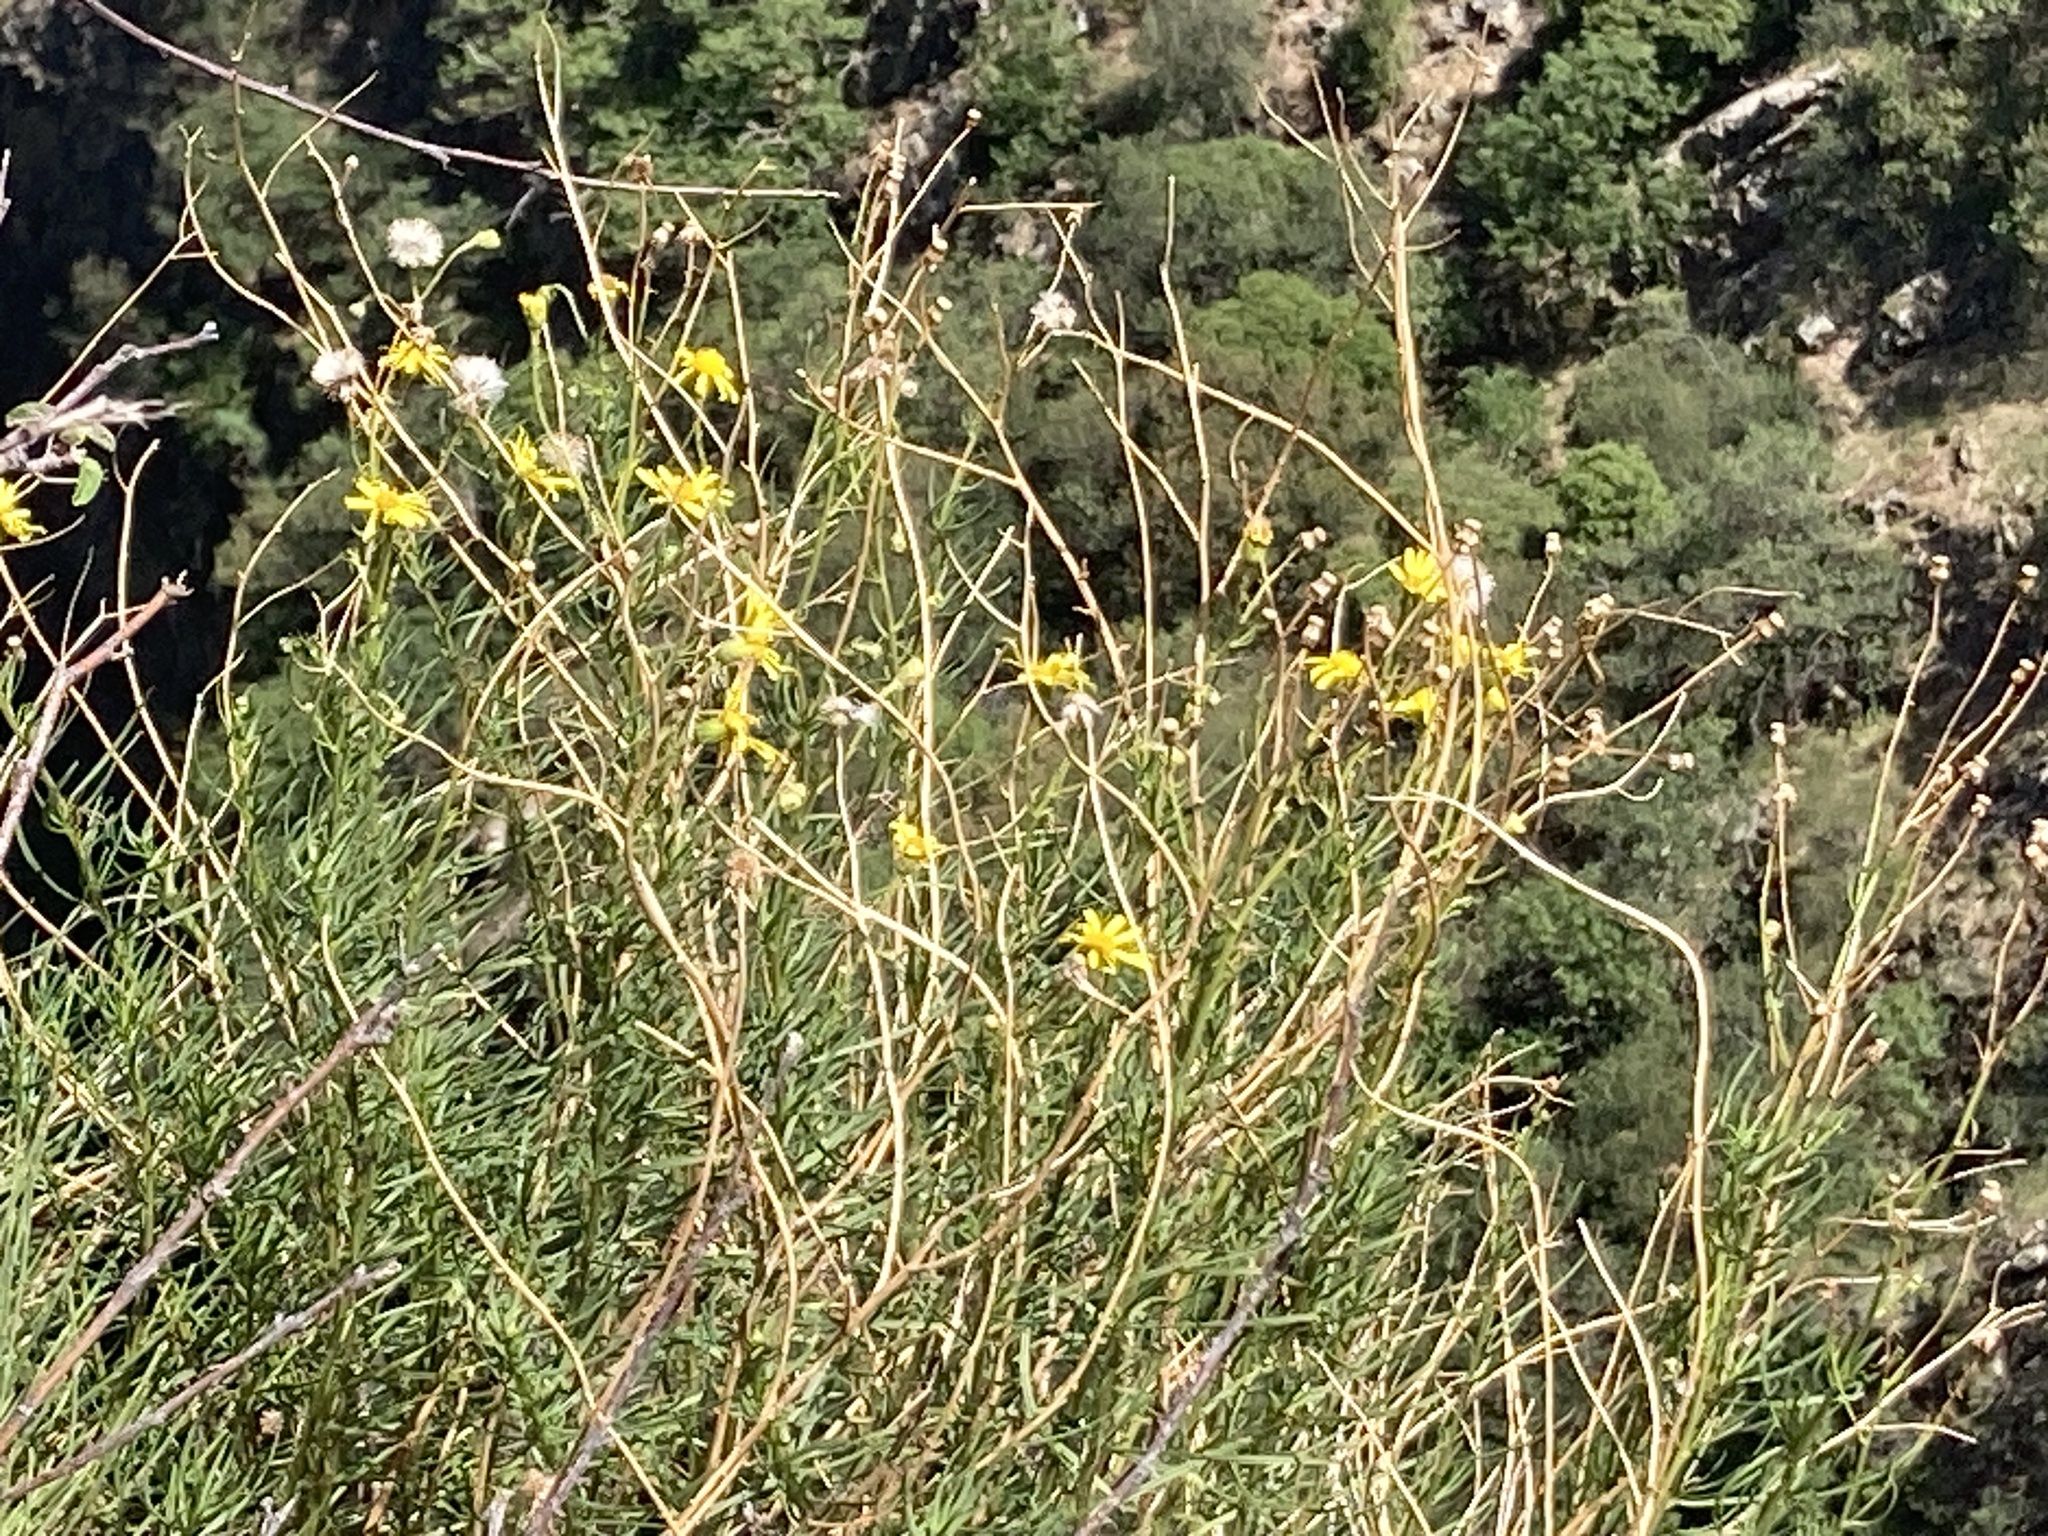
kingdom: Plantae
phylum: Tracheophyta
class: Magnoliopsida
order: Asterales
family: Asteraceae
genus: Senecio
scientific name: Senecio inaequidens
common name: Narrow-leaved ragwort
